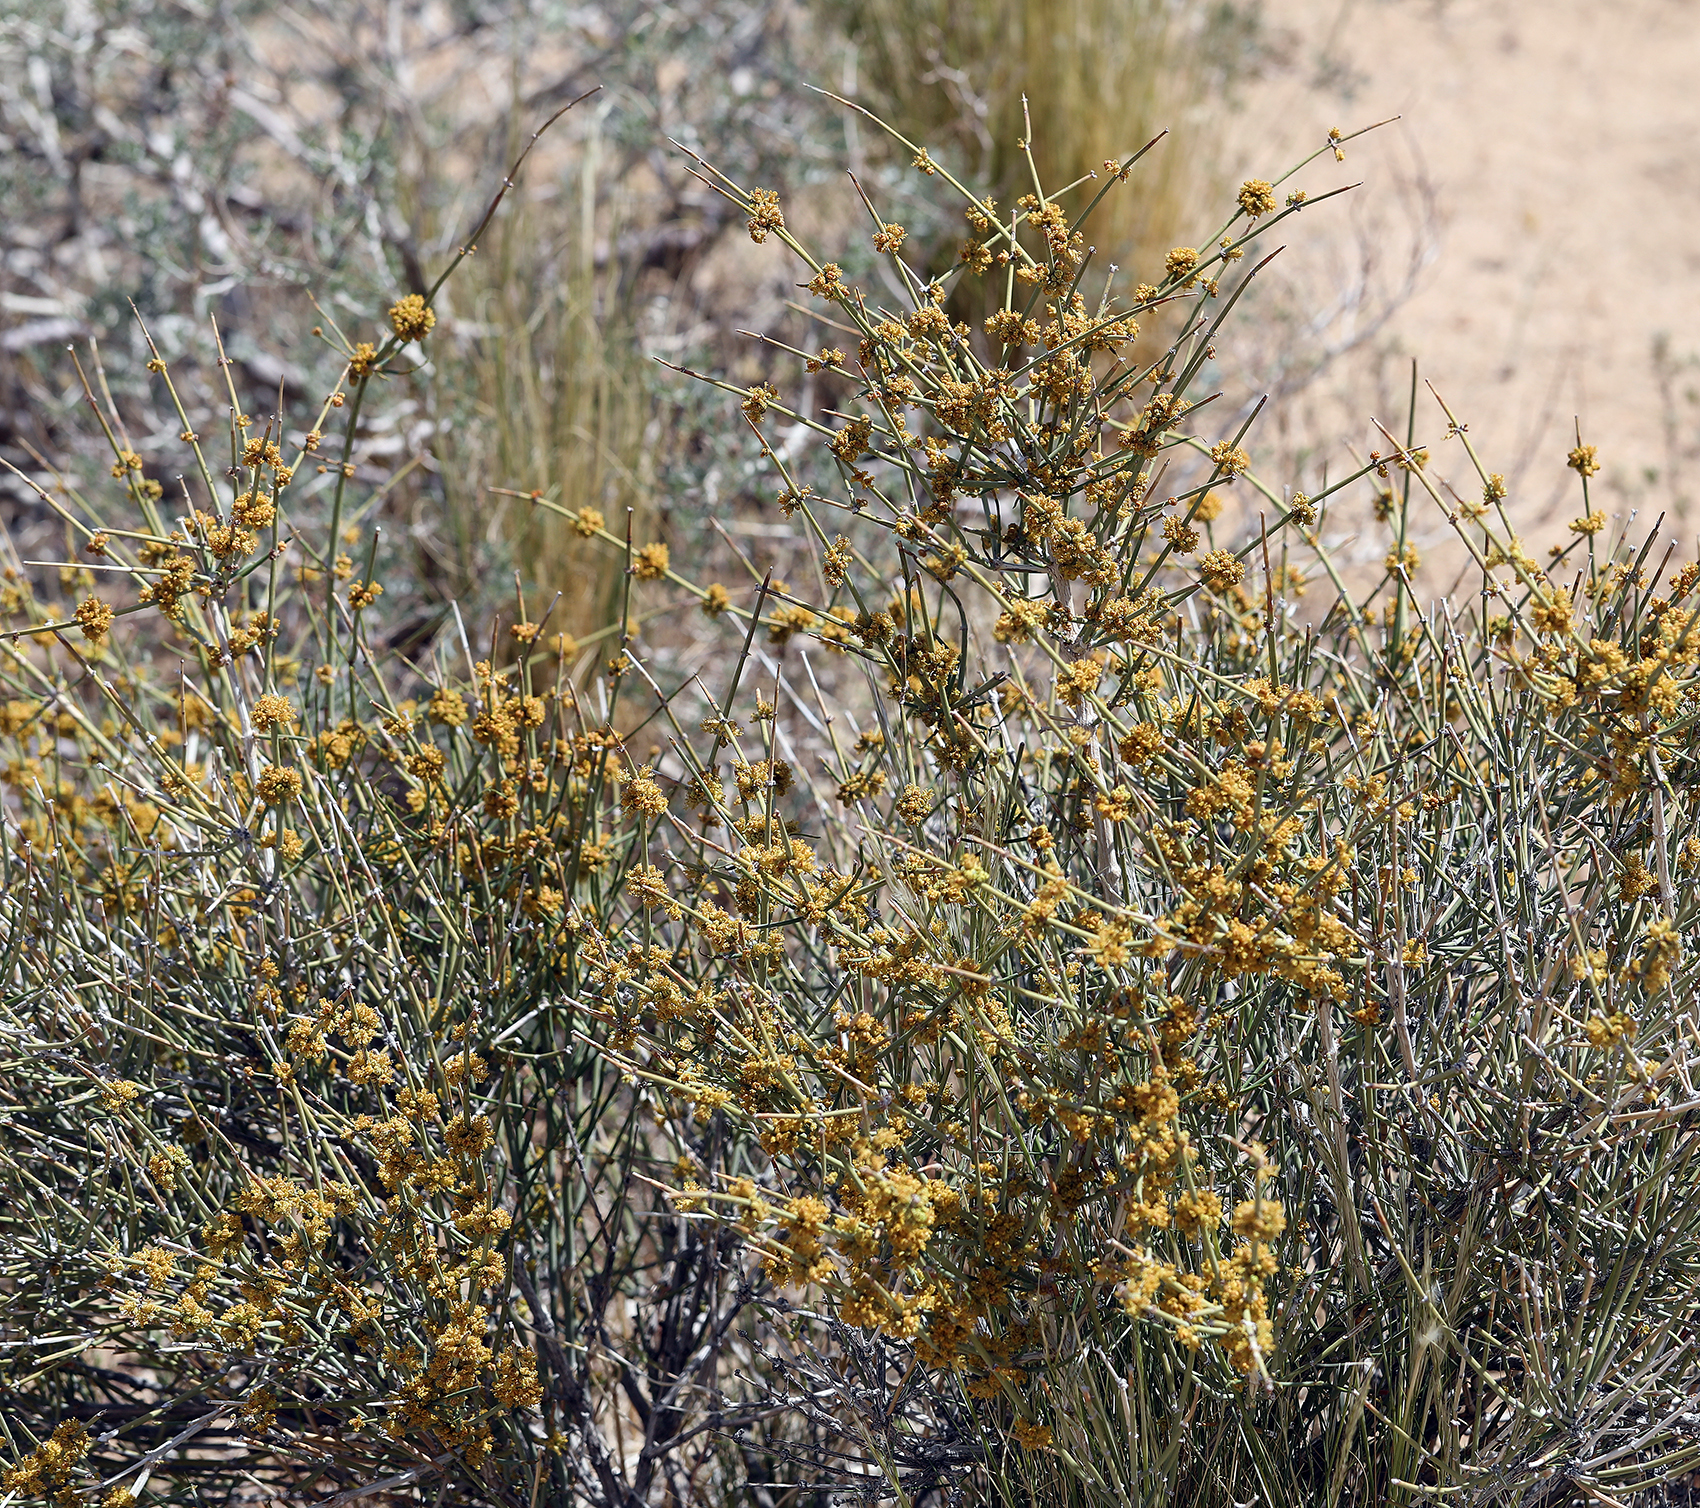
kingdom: Plantae
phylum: Tracheophyta
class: Gnetopsida
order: Ephedrales
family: Ephedraceae
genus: Ephedra
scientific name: Ephedra nevadensis
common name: Gray ephedra
